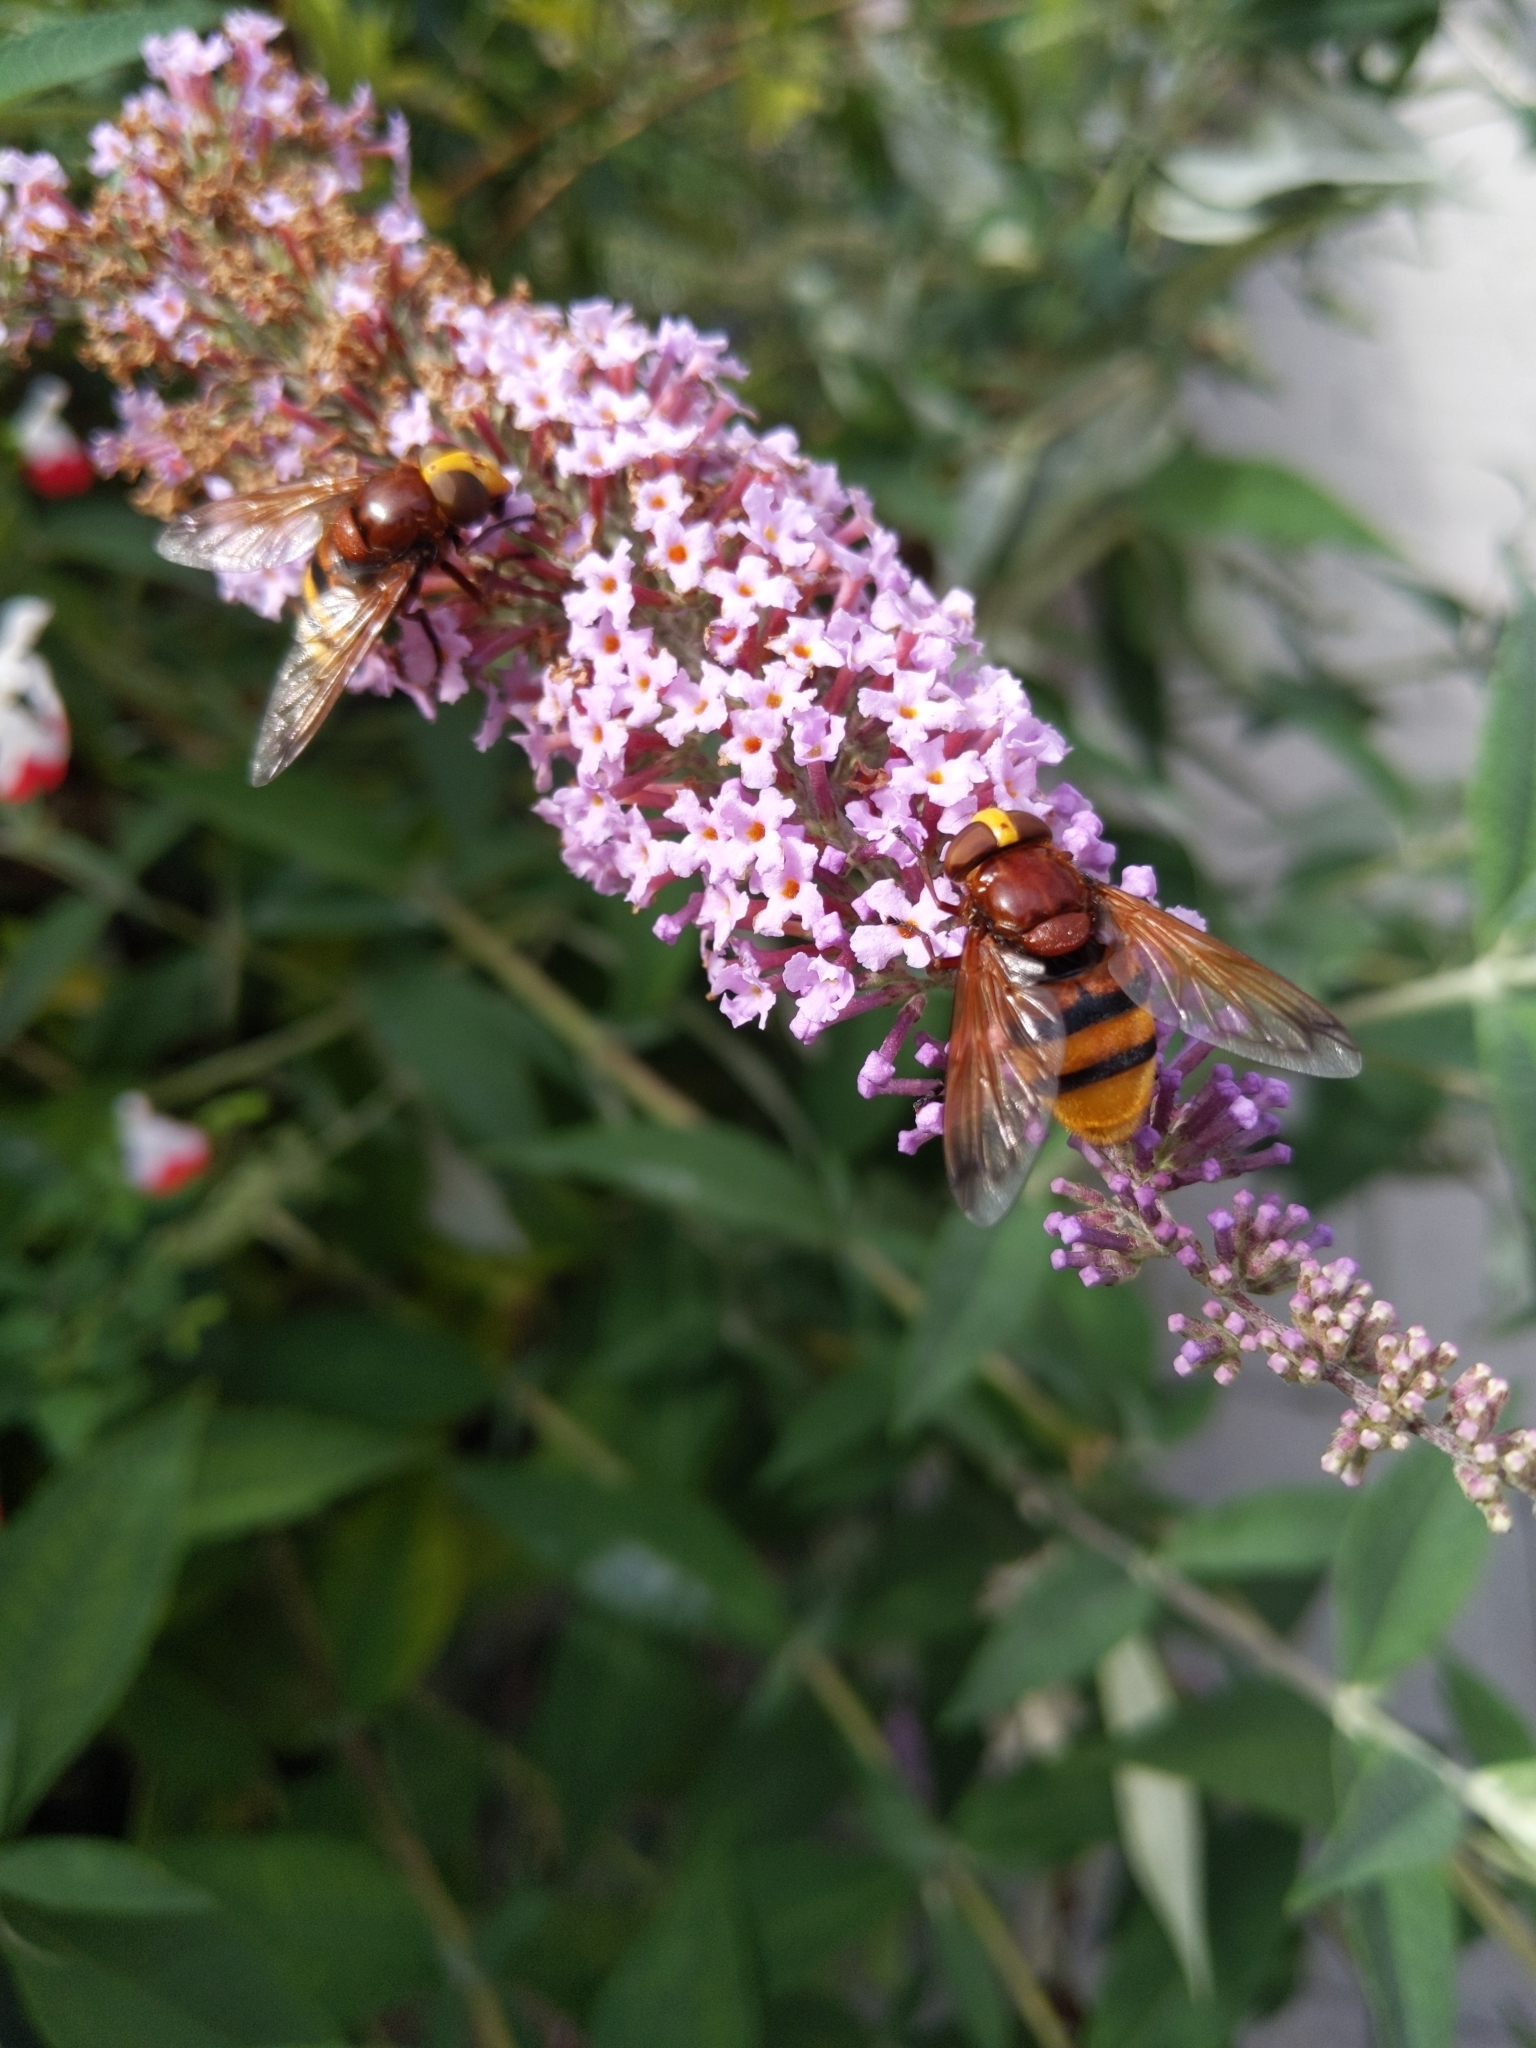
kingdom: Animalia
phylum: Arthropoda
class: Insecta
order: Diptera
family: Syrphidae
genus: Volucella
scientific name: Volucella zonaria
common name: Hornet hoverfly
